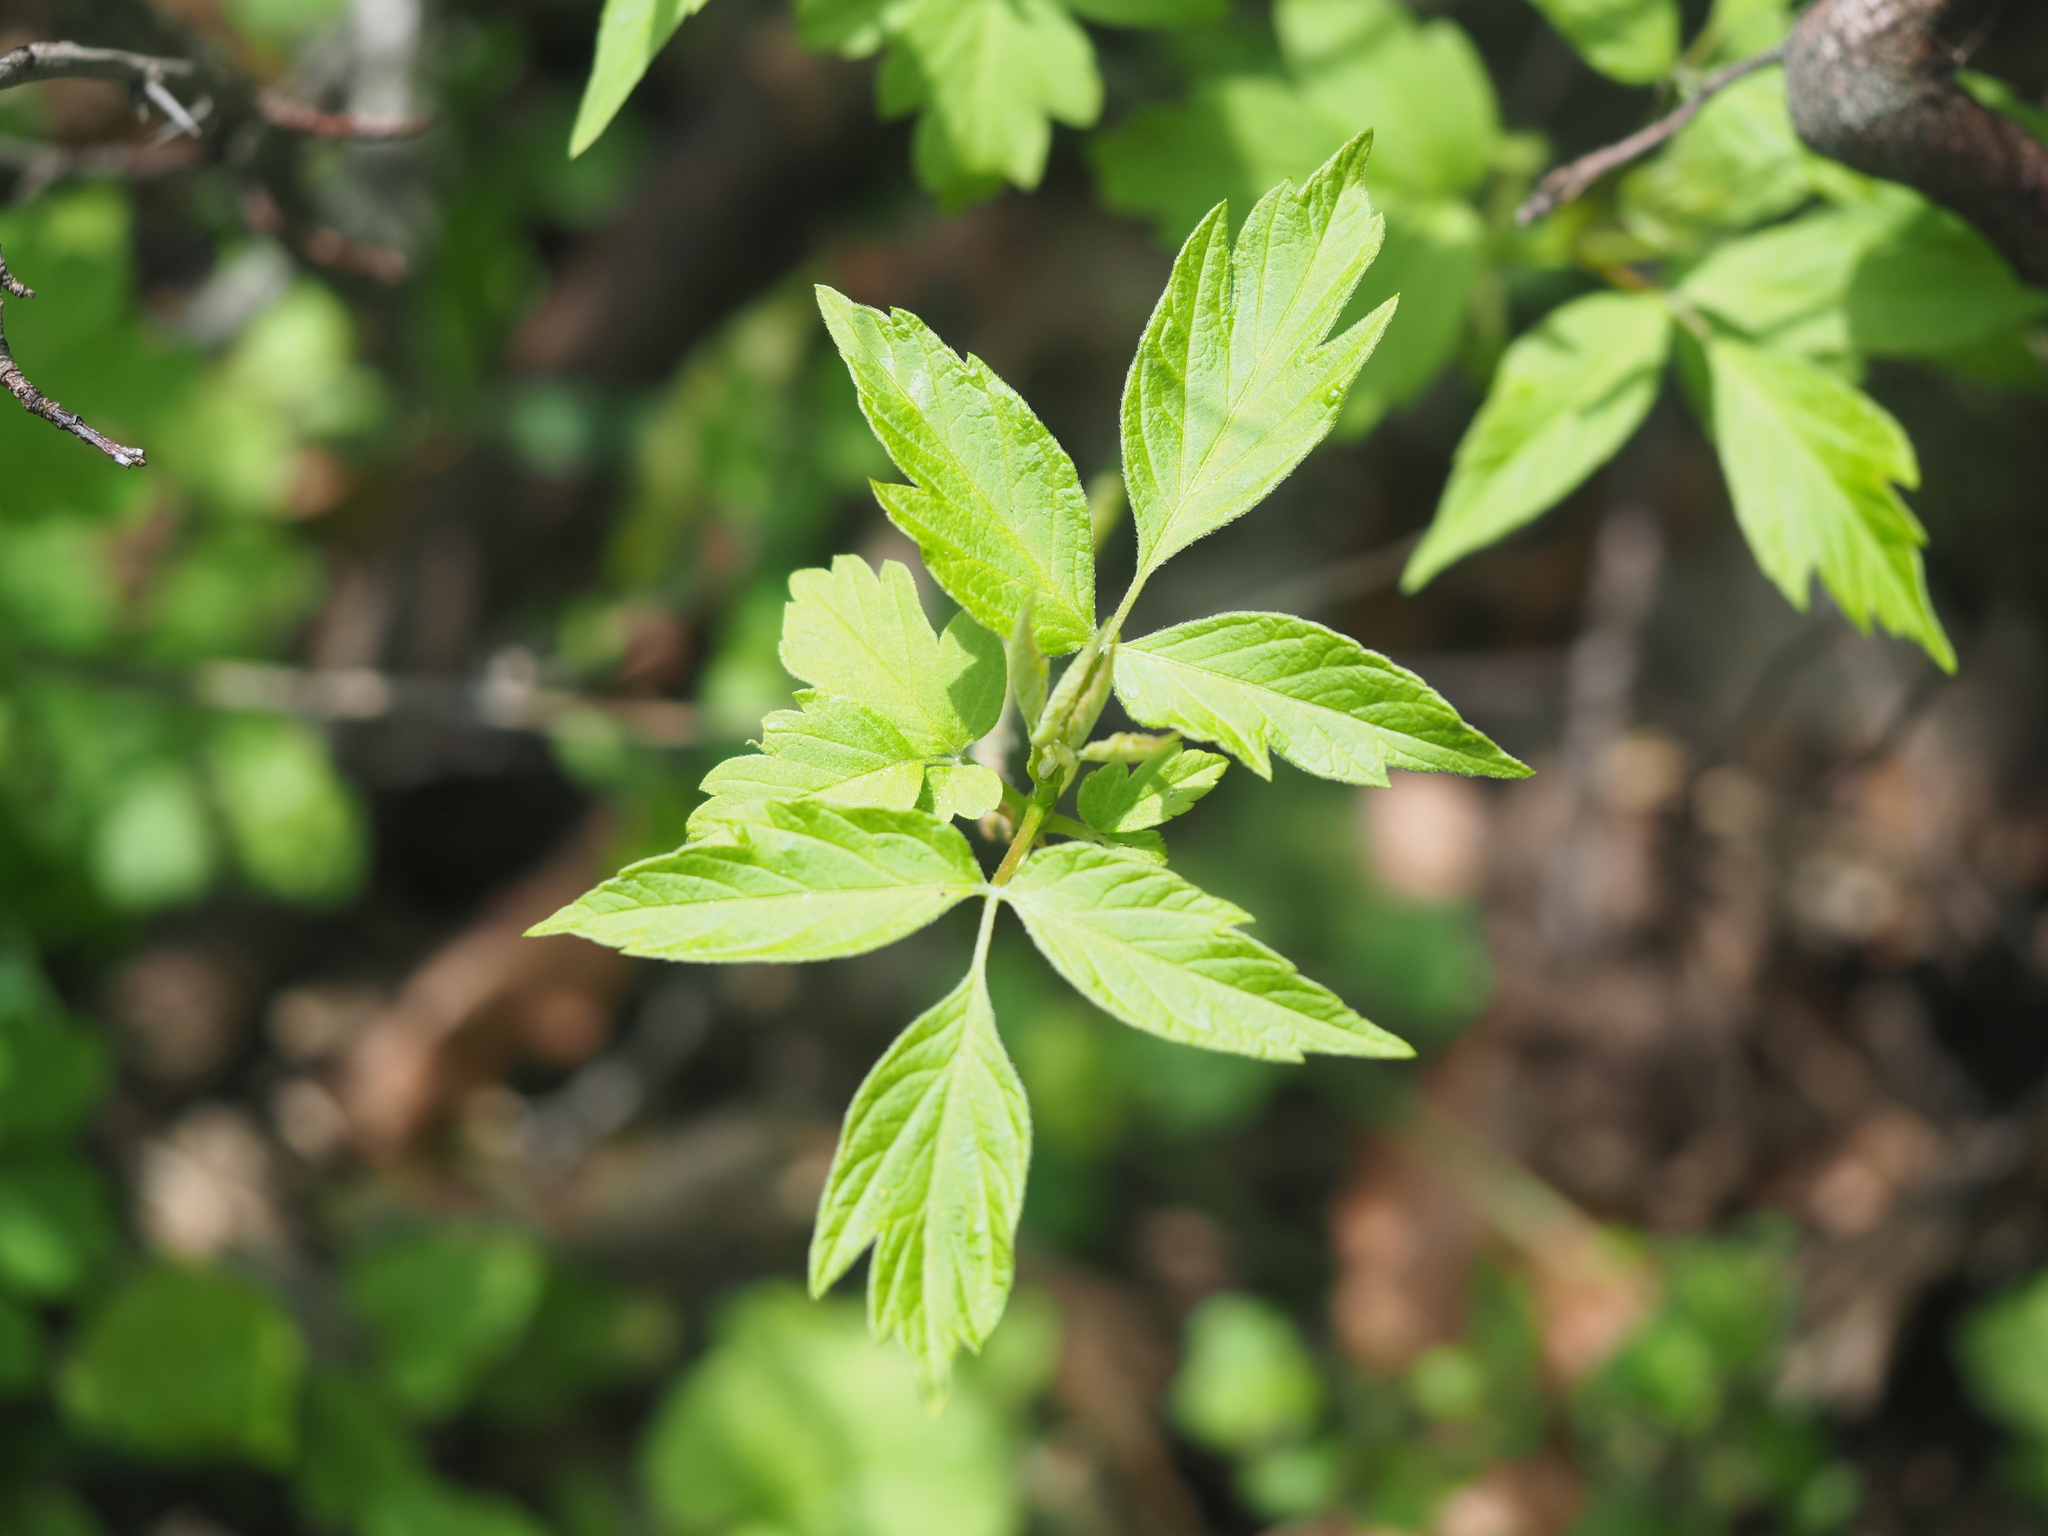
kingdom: Plantae
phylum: Tracheophyta
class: Magnoliopsida
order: Sapindales
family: Sapindaceae
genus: Acer
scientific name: Acer negundo
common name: Ashleaf maple
